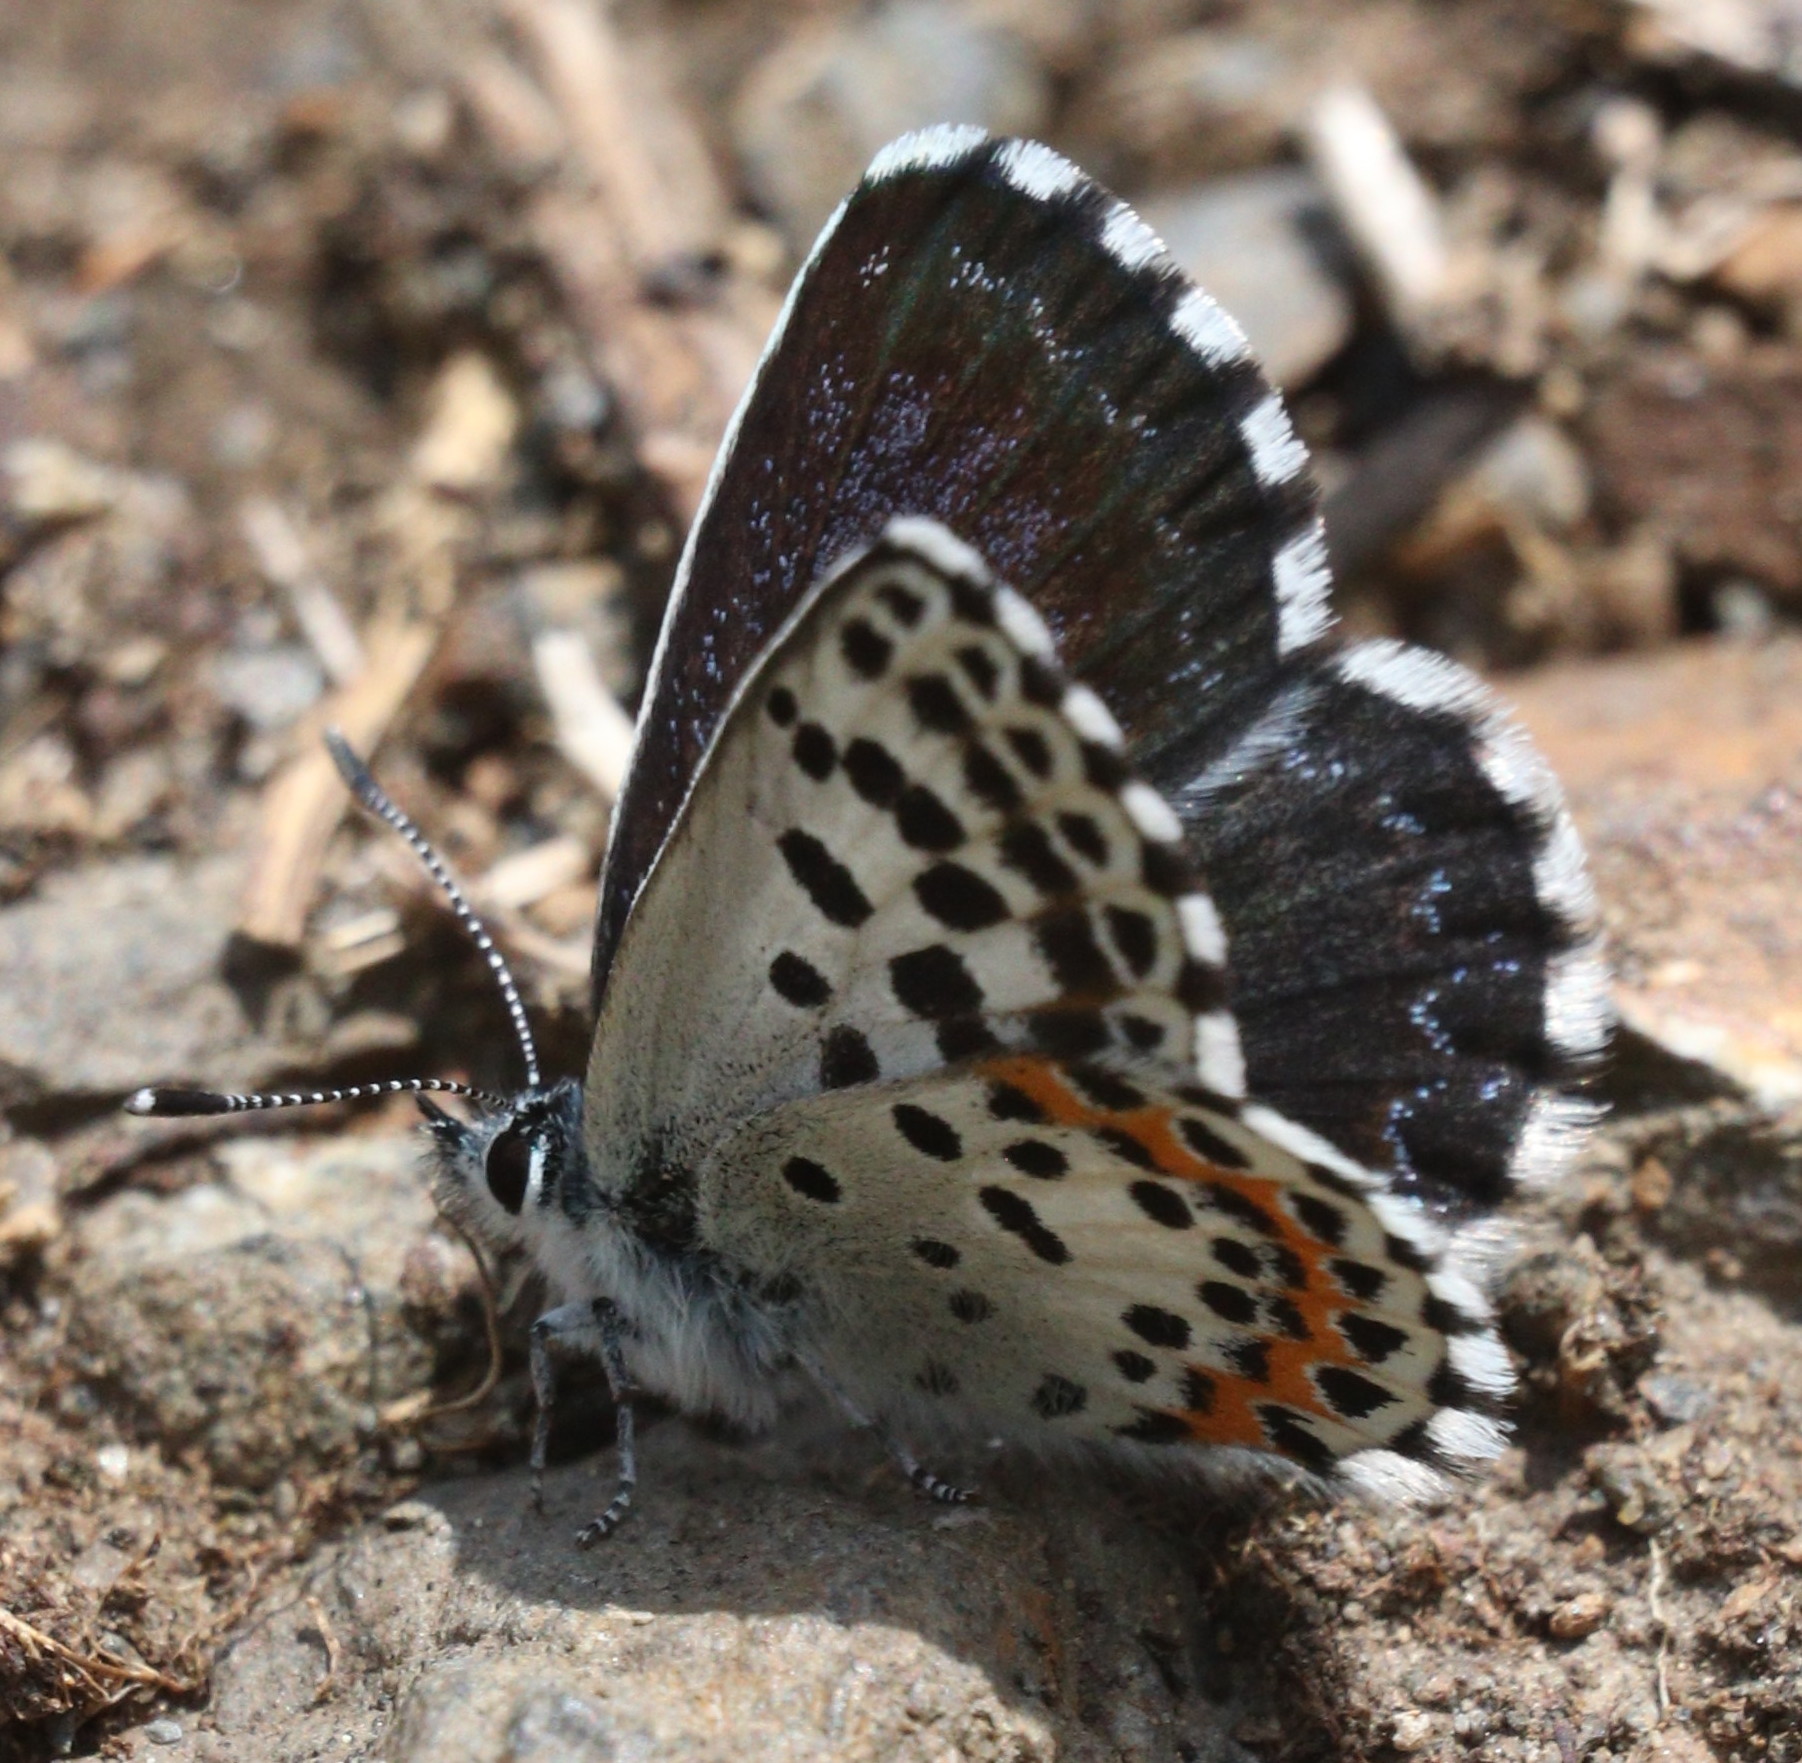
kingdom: Animalia
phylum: Arthropoda
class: Insecta
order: Lepidoptera
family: Lycaenidae
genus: Scolitantides
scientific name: Scolitantides orion
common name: Chequered blue
